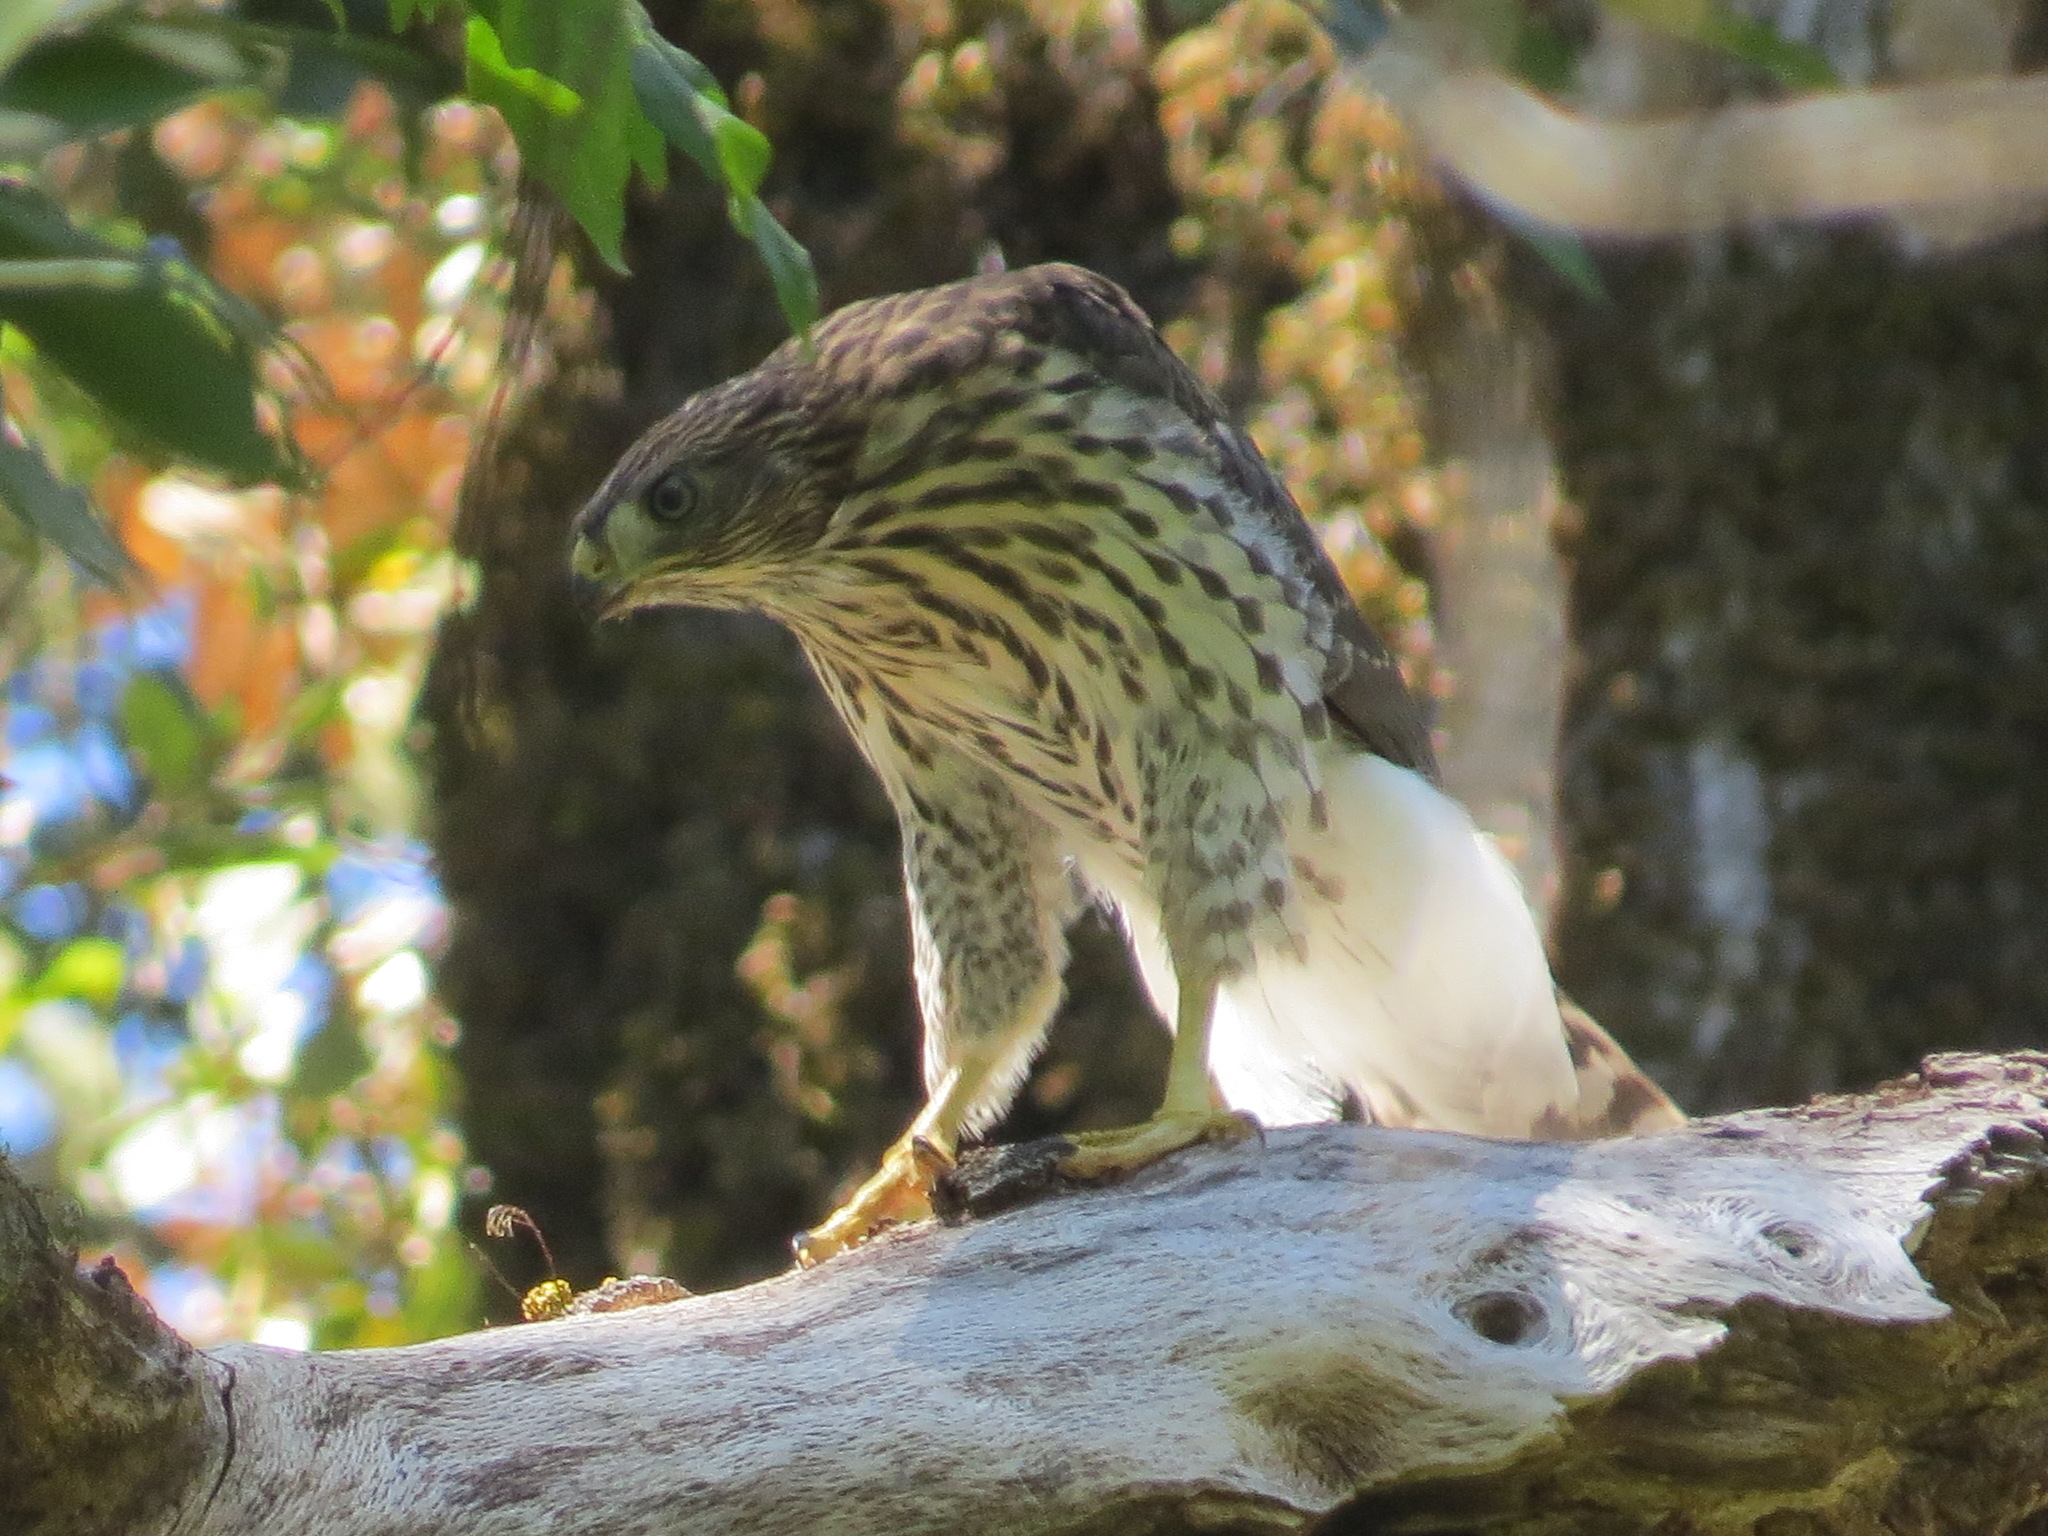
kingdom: Animalia
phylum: Chordata
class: Aves
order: Accipitriformes
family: Accipitridae
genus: Accipiter
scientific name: Accipiter cooperii
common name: Cooper's hawk
